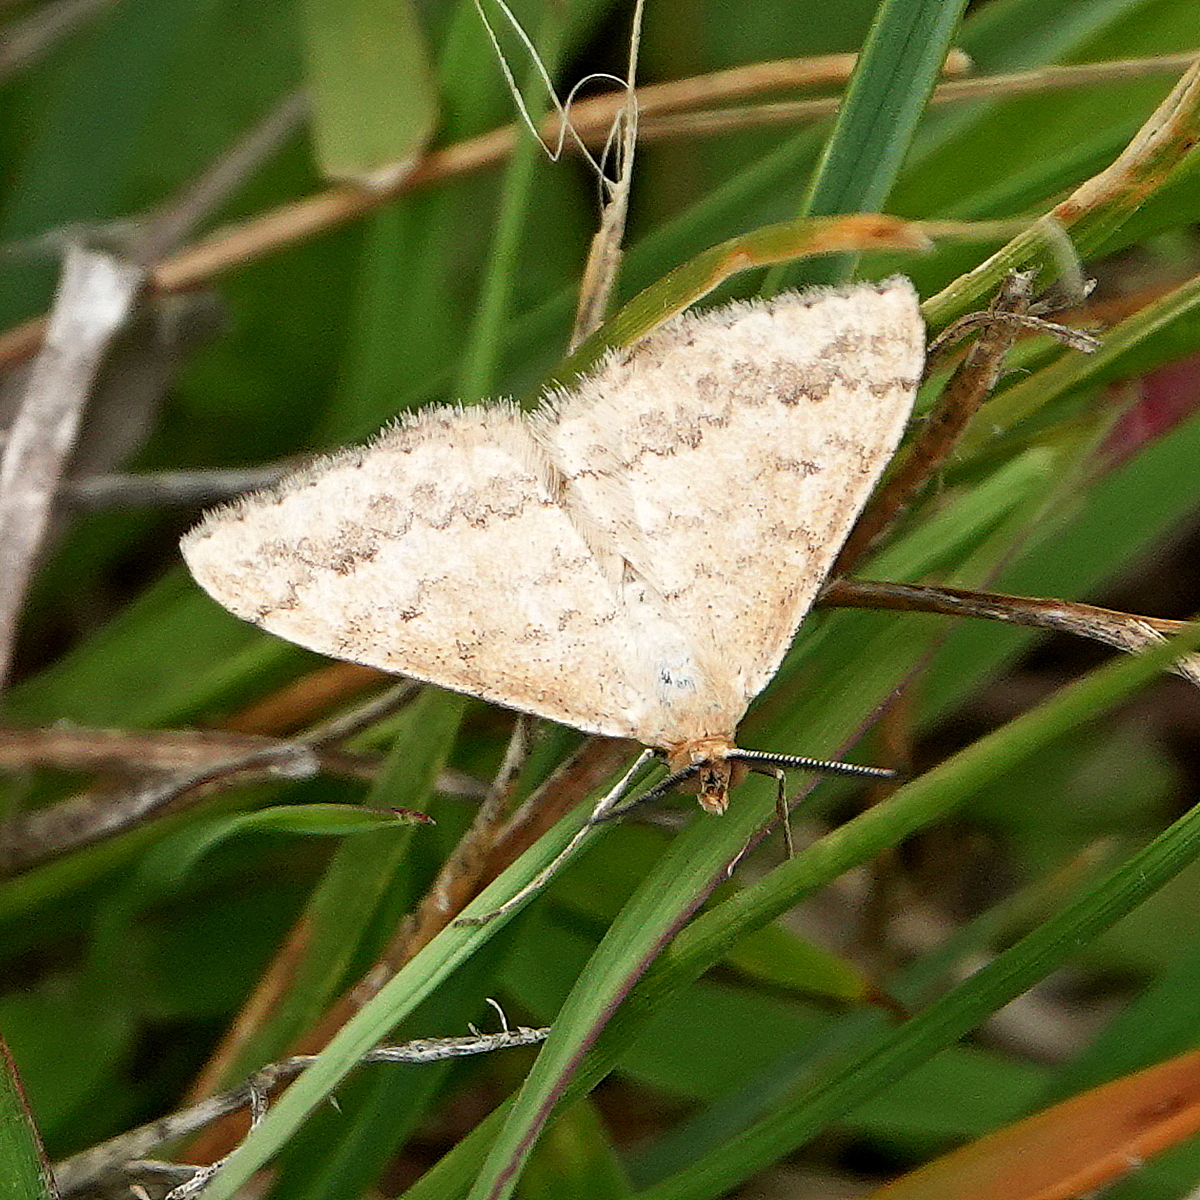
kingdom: Animalia
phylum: Arthropoda
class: Insecta
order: Lepidoptera
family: Geometridae
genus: Scopula
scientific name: Scopula rubraria
